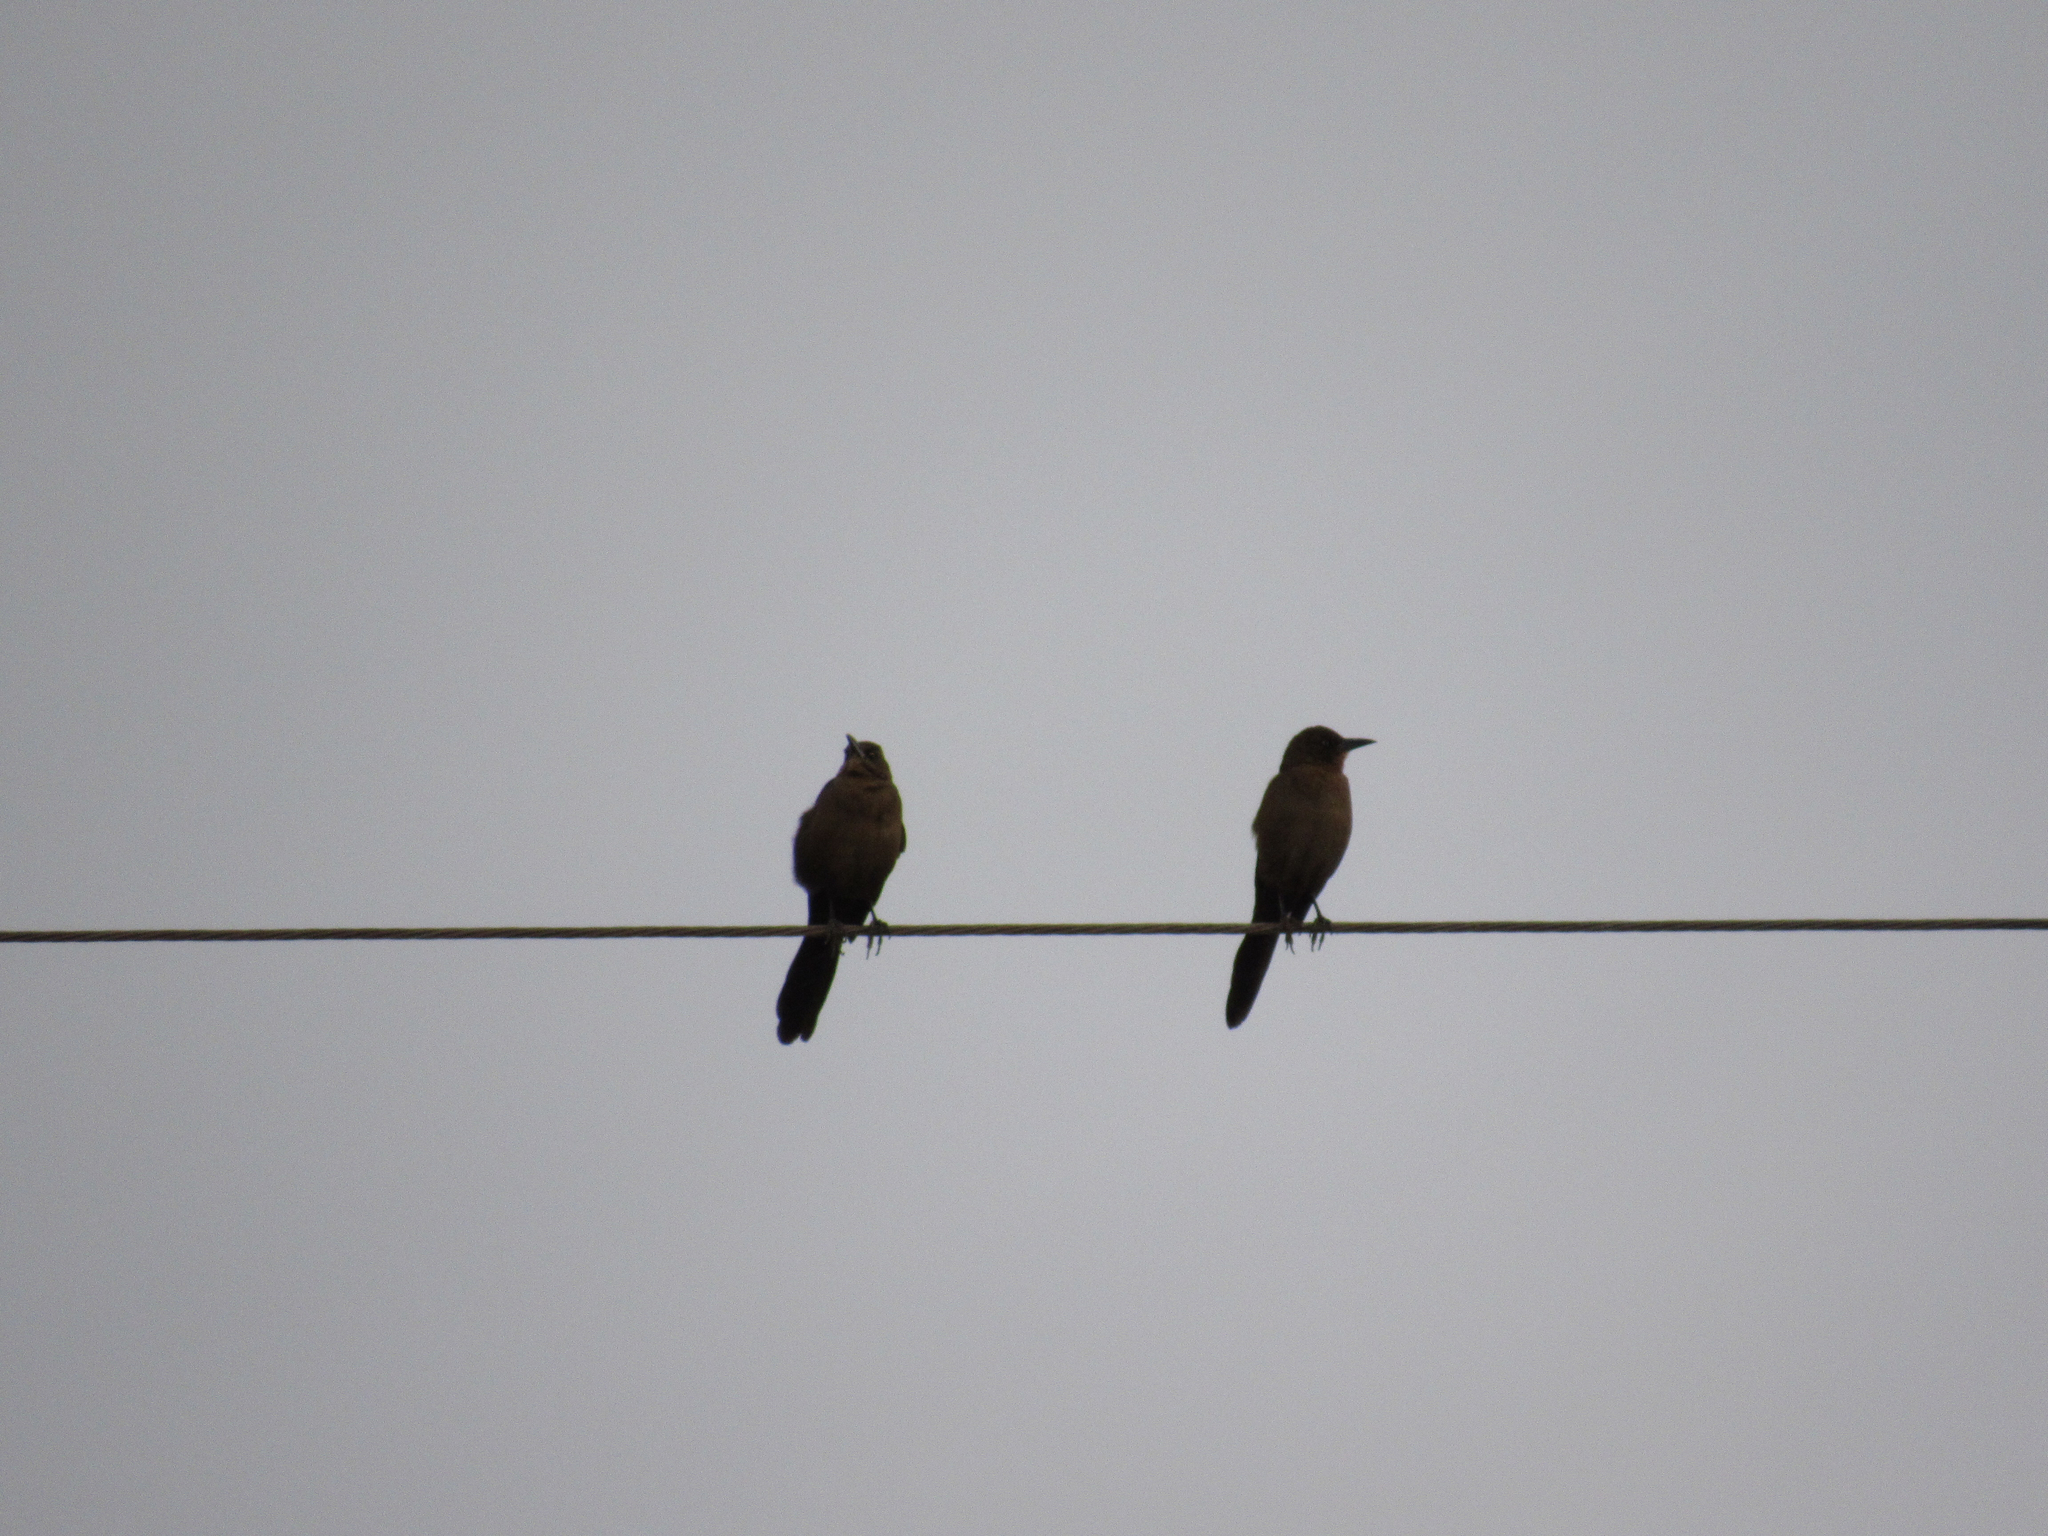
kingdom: Animalia
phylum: Chordata
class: Aves
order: Passeriformes
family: Icteridae
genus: Quiscalus
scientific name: Quiscalus mexicanus
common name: Great-tailed grackle
